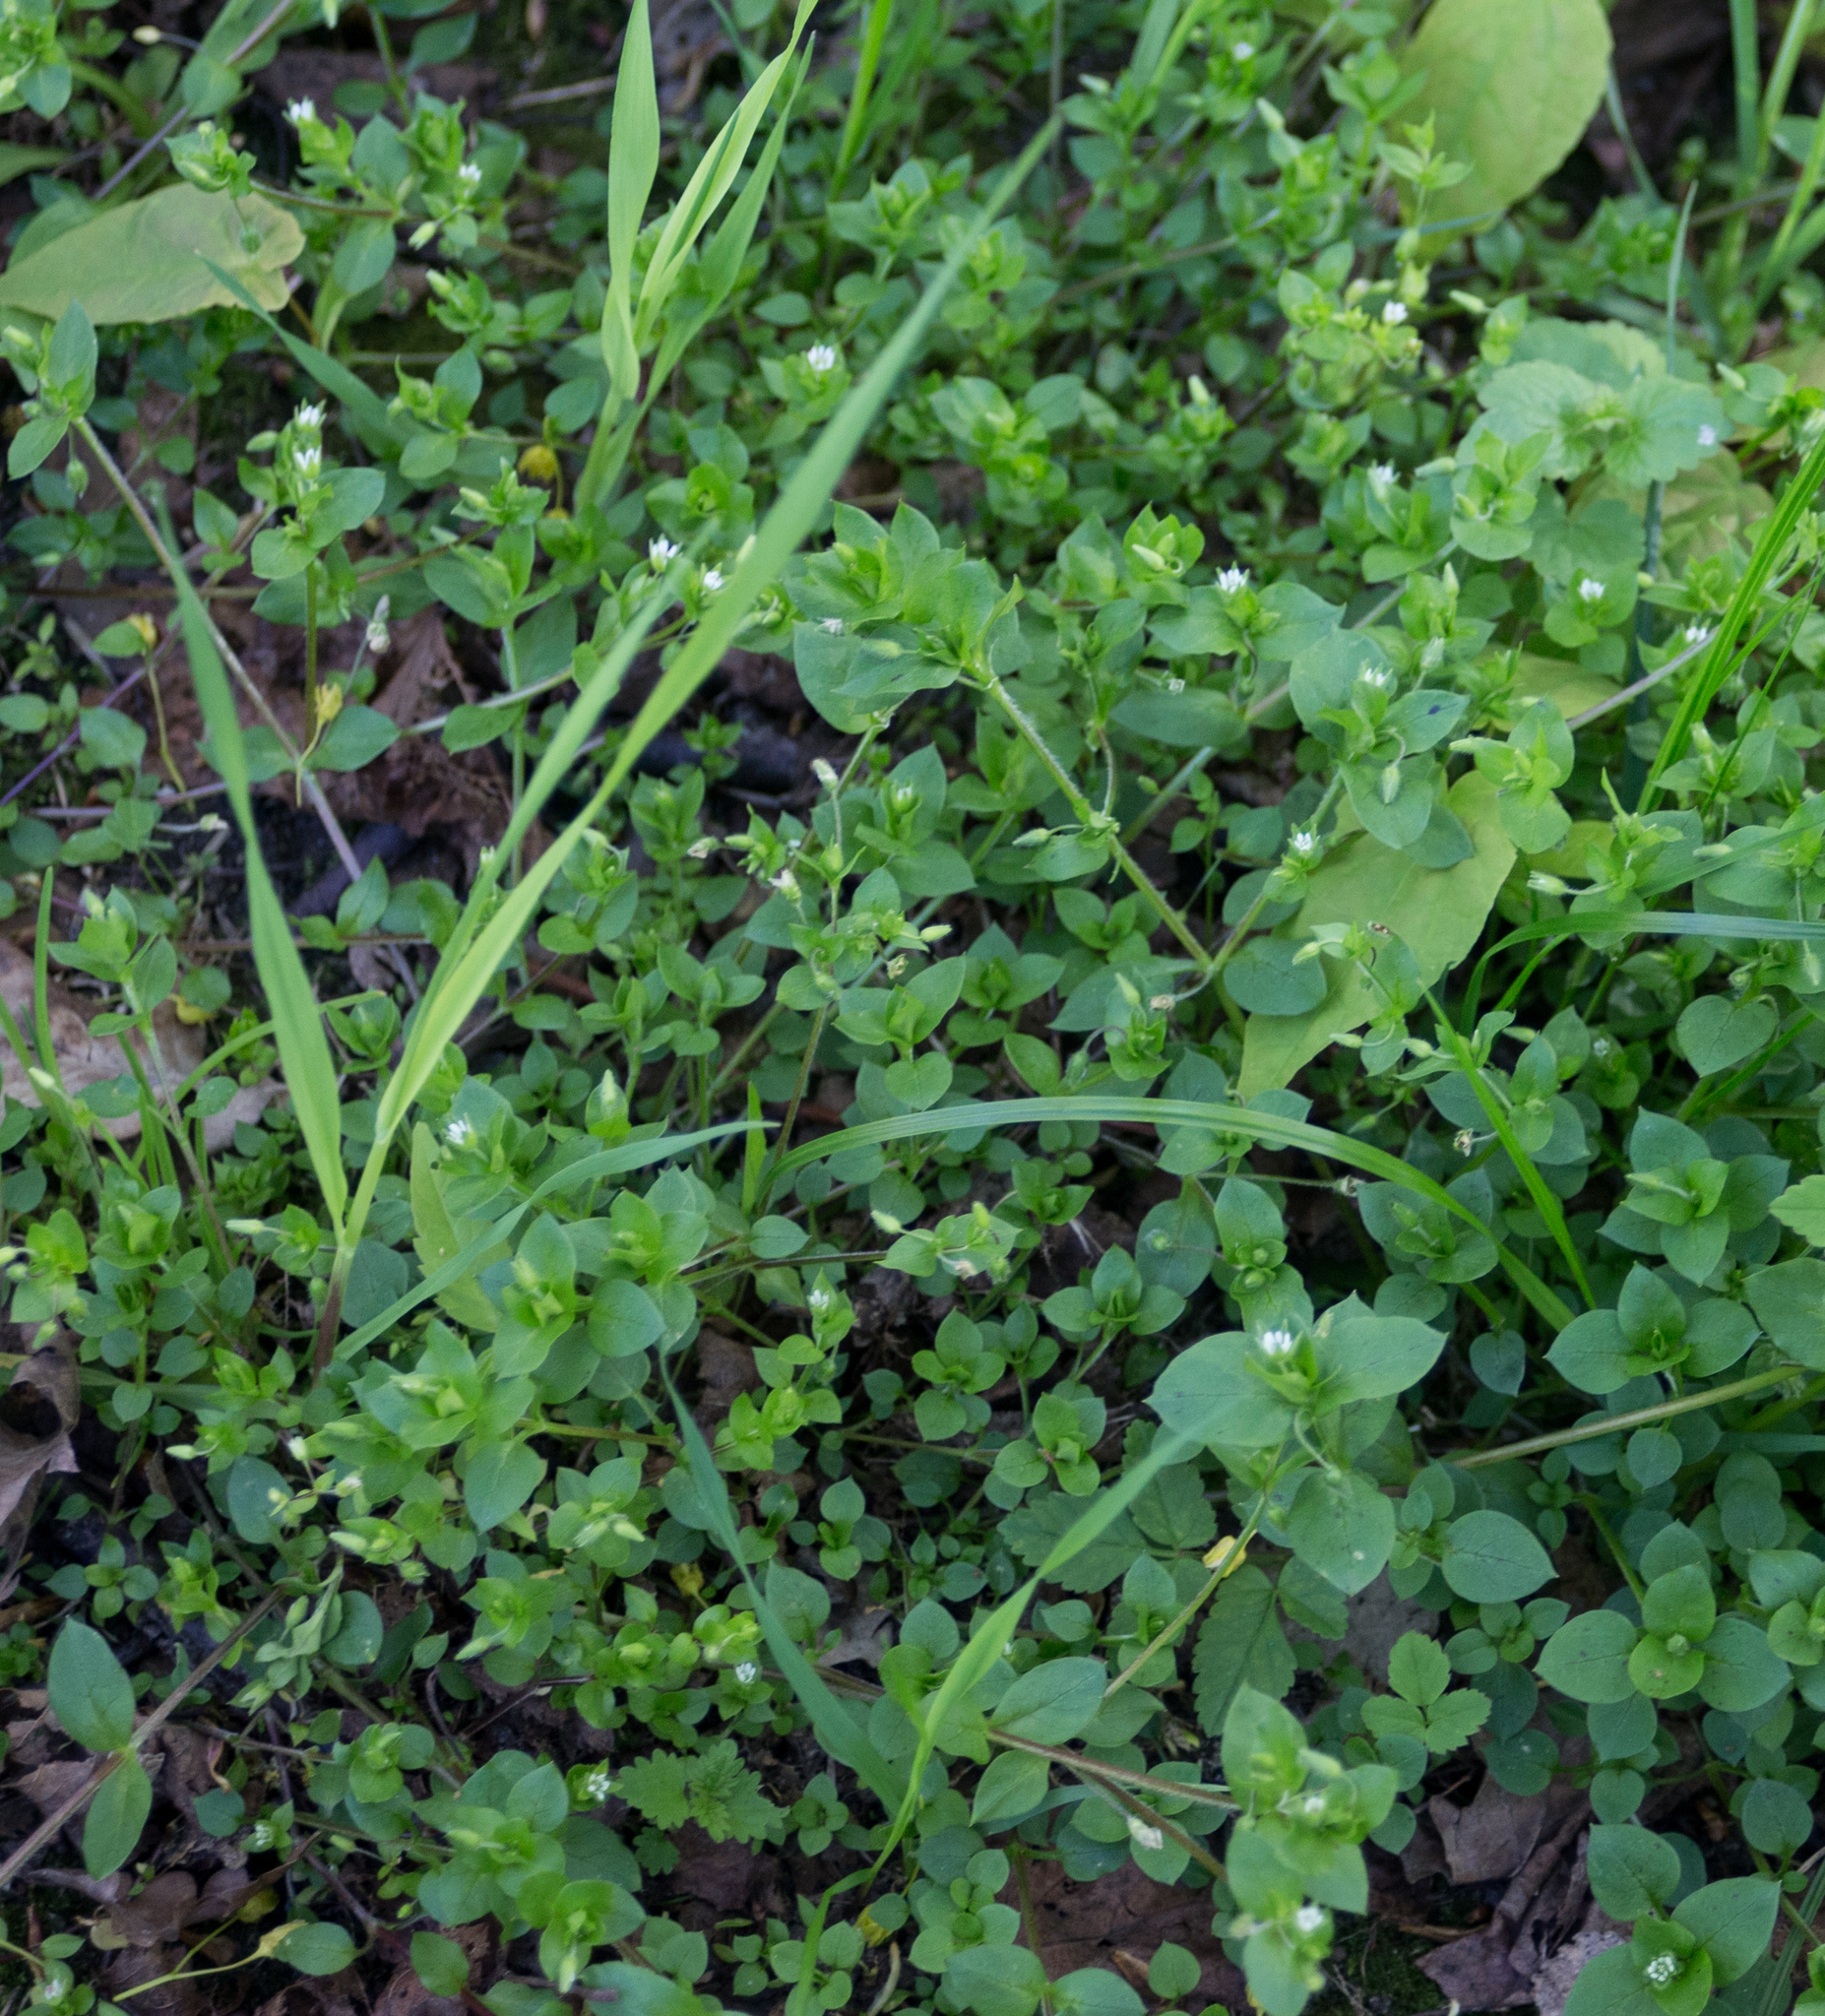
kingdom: Plantae
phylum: Tracheophyta
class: Magnoliopsida
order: Caryophyllales
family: Caryophyllaceae
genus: Stellaria
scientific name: Stellaria media
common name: Common chickweed
